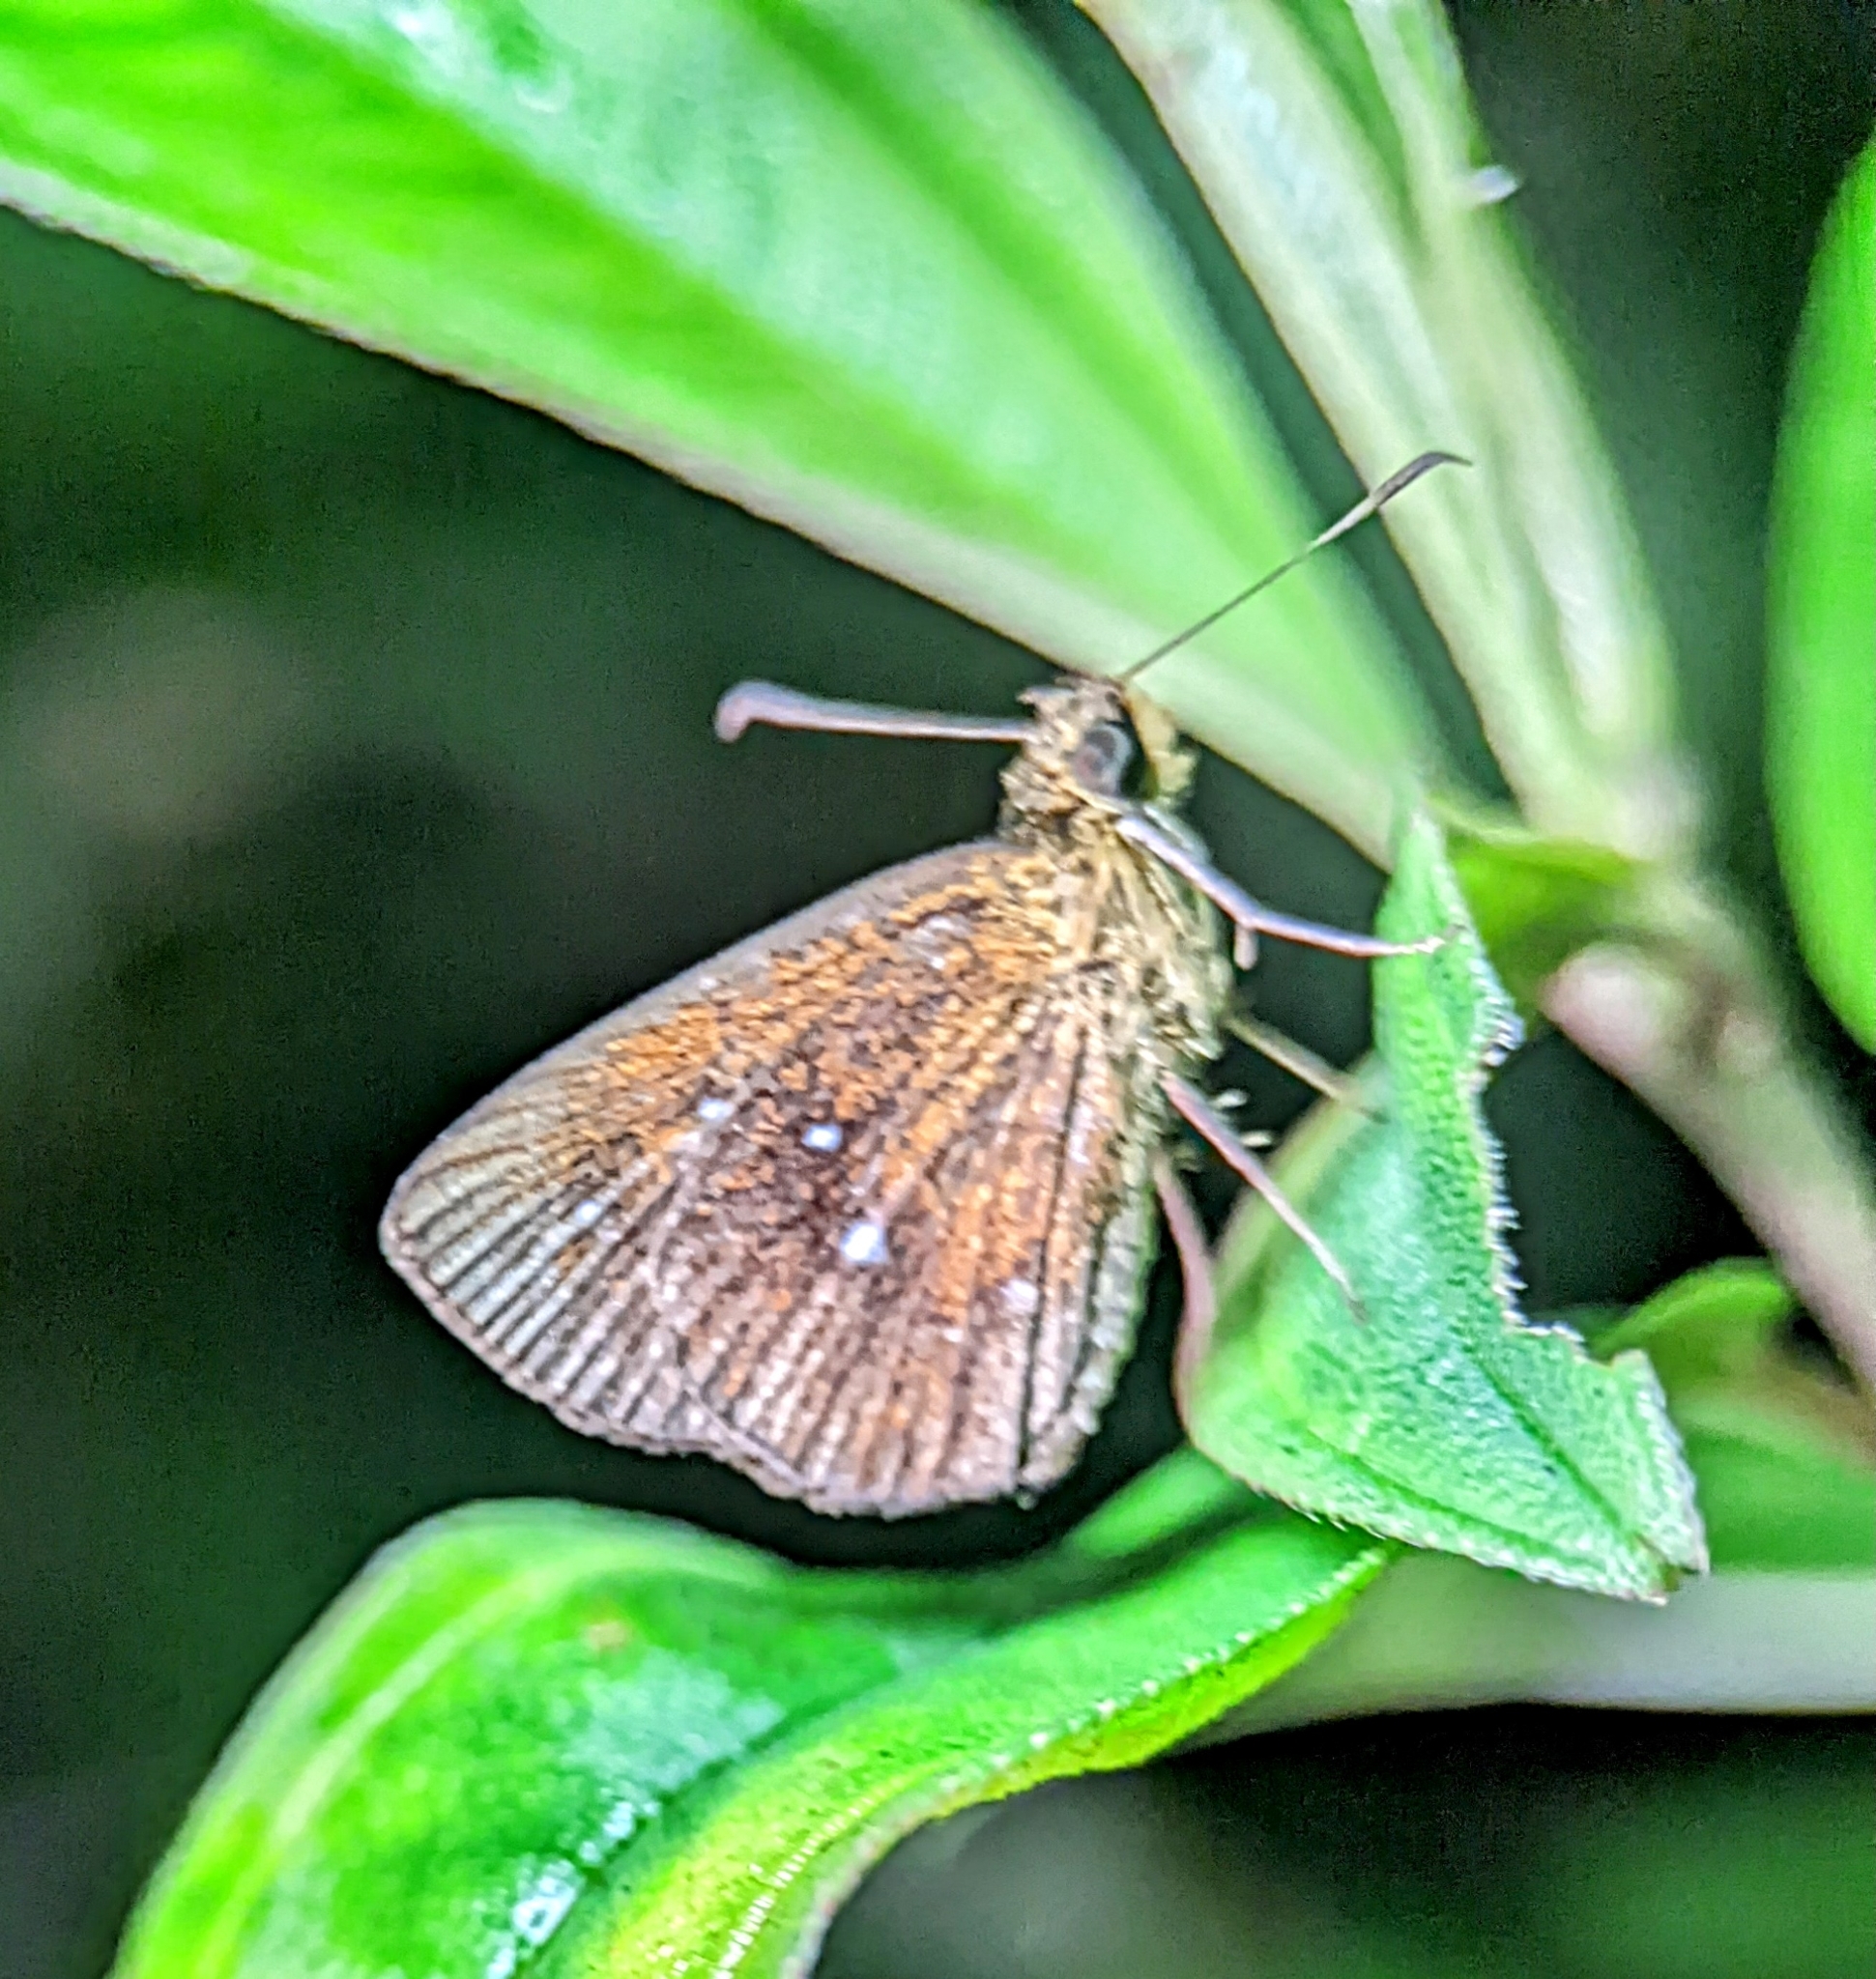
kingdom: Animalia
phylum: Arthropoda
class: Insecta
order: Lepidoptera
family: Hesperiidae
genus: Iambrix
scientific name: Iambrix salsala
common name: Chestnut bob
